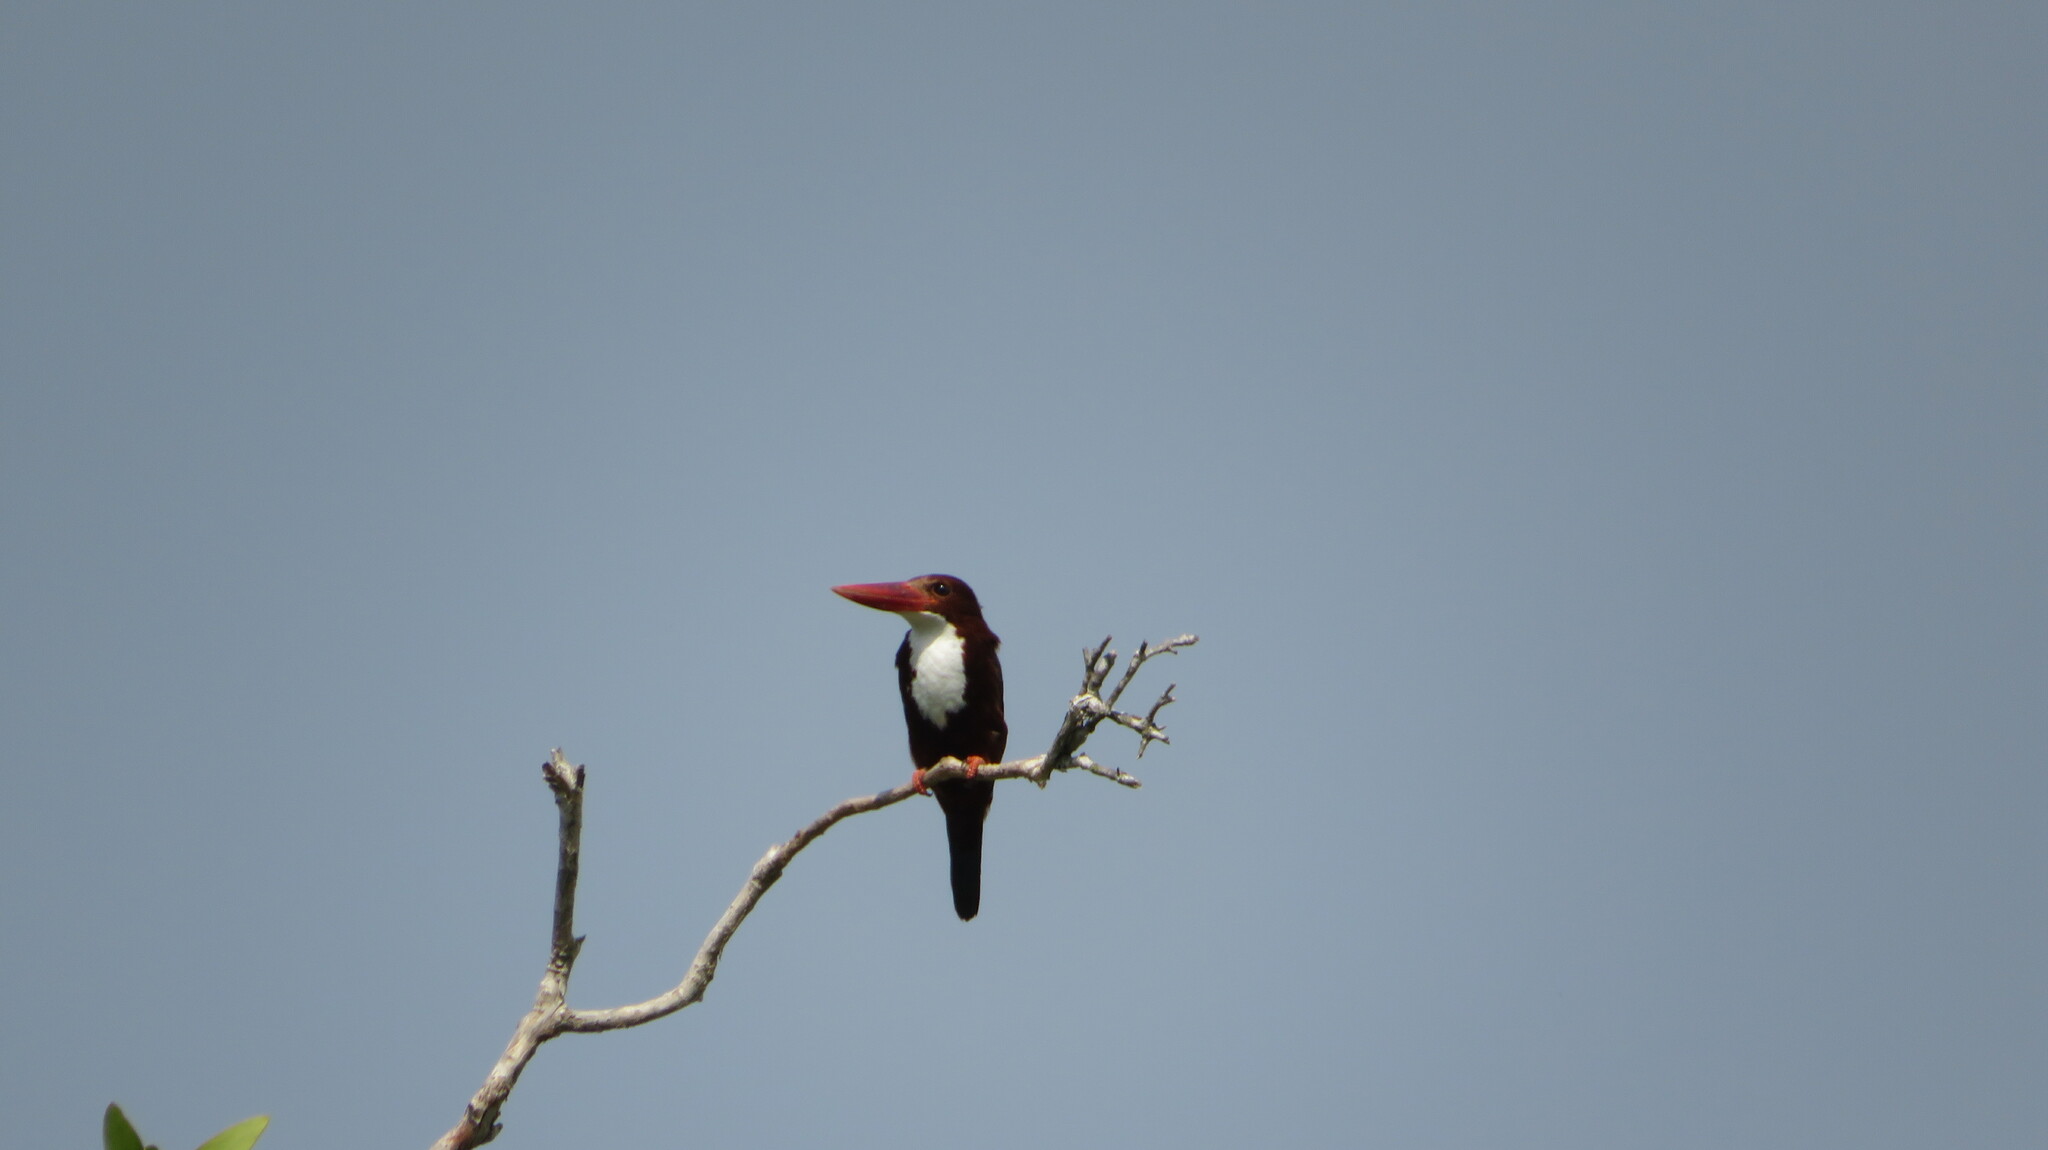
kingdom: Animalia
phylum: Chordata
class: Aves
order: Coraciiformes
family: Alcedinidae
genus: Halcyon
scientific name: Halcyon smyrnensis
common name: White-throated kingfisher
